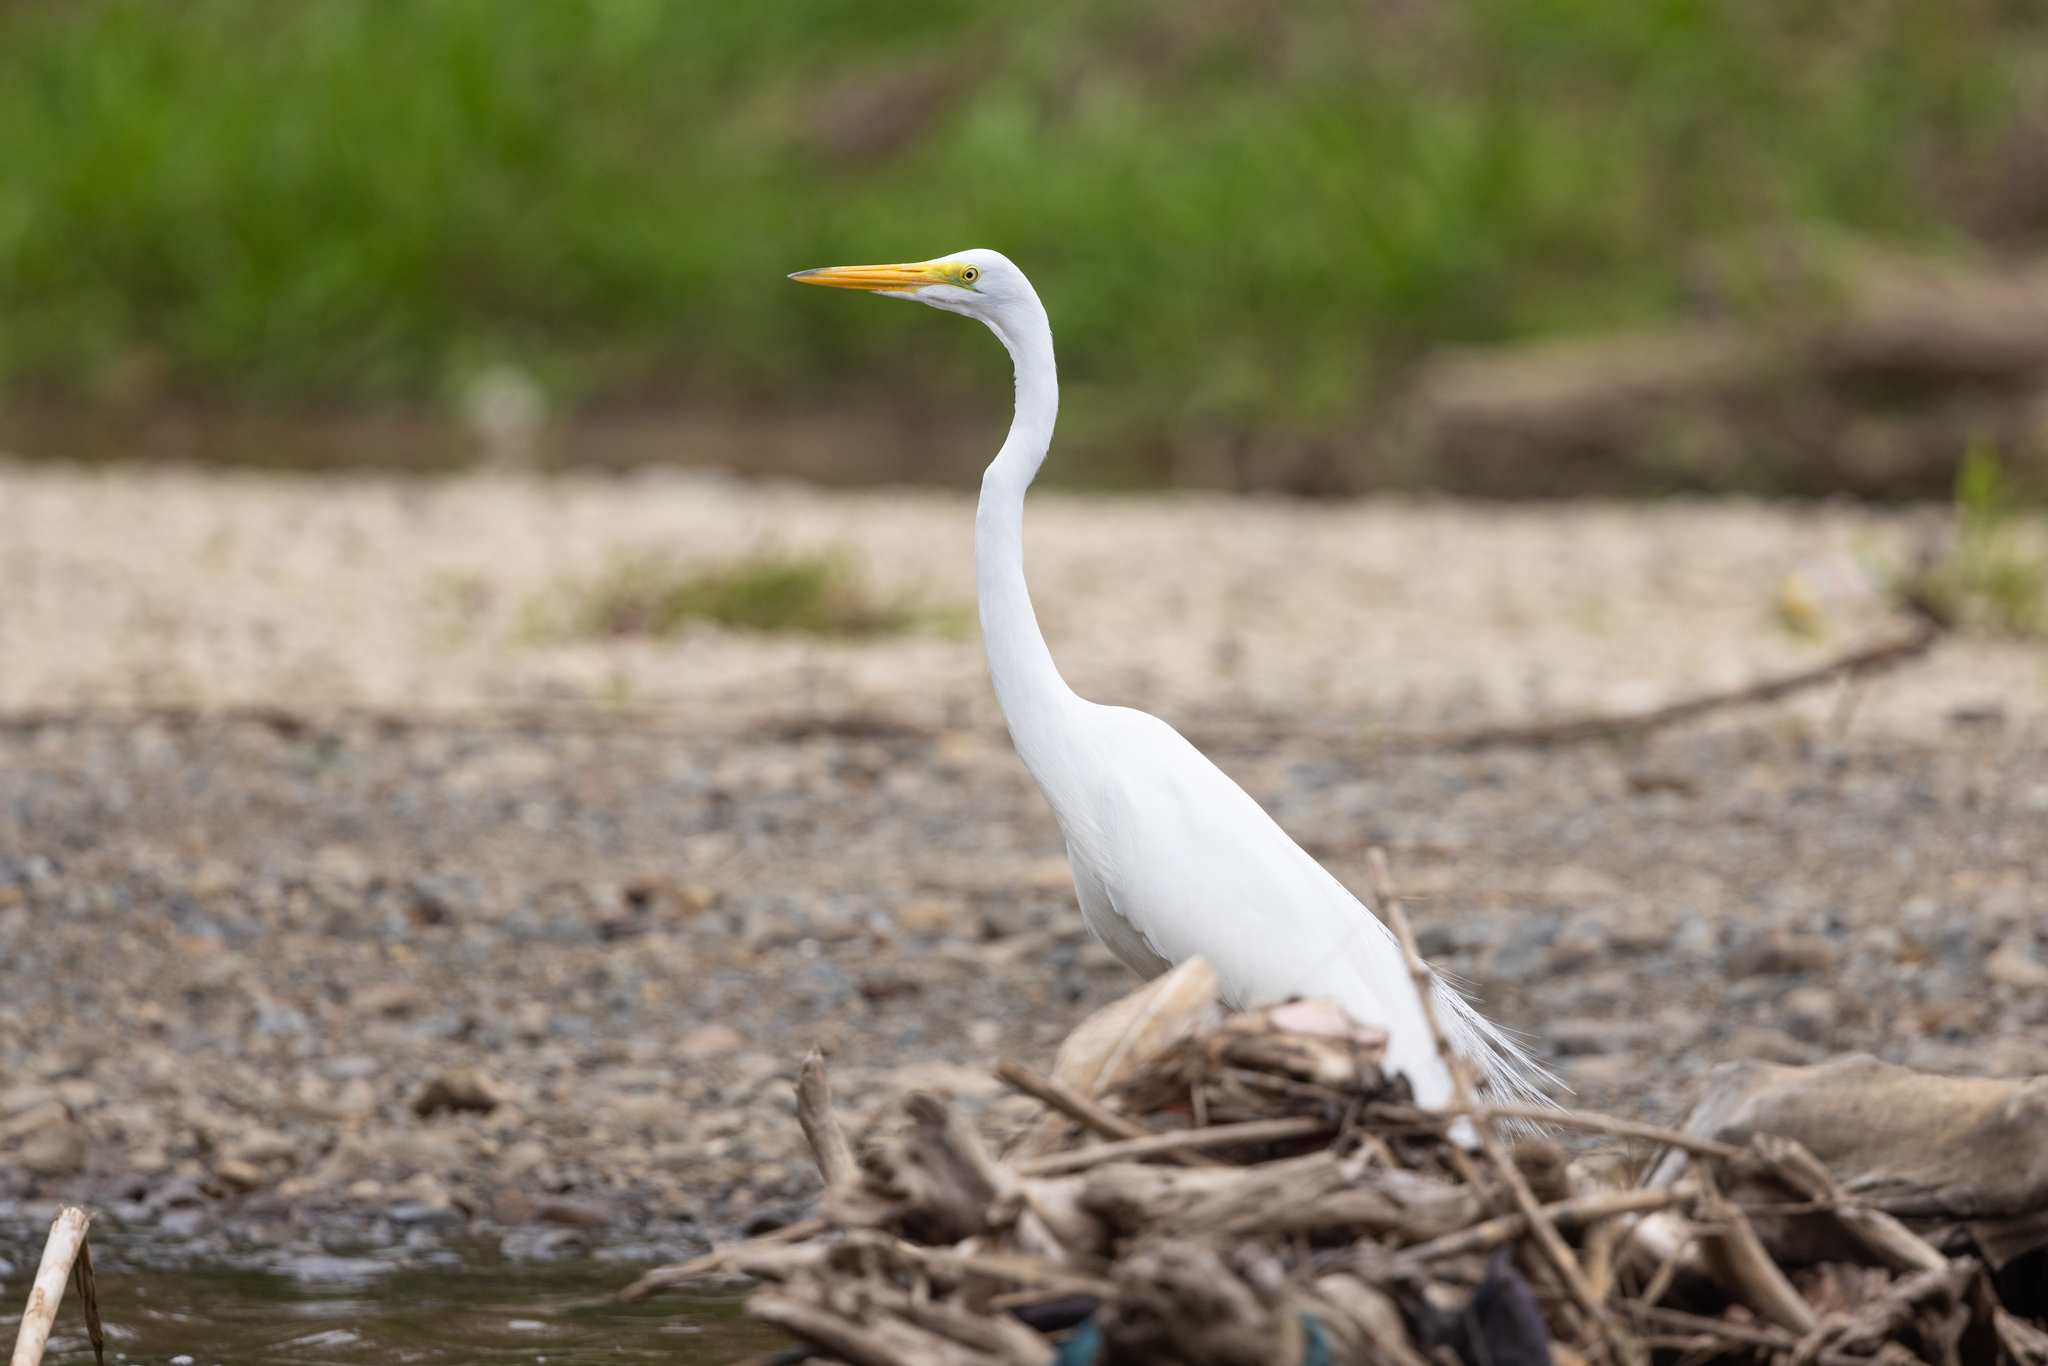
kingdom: Animalia
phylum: Chordata
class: Aves
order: Pelecaniformes
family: Ardeidae
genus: Ardea
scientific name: Ardea alba
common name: Great egret
